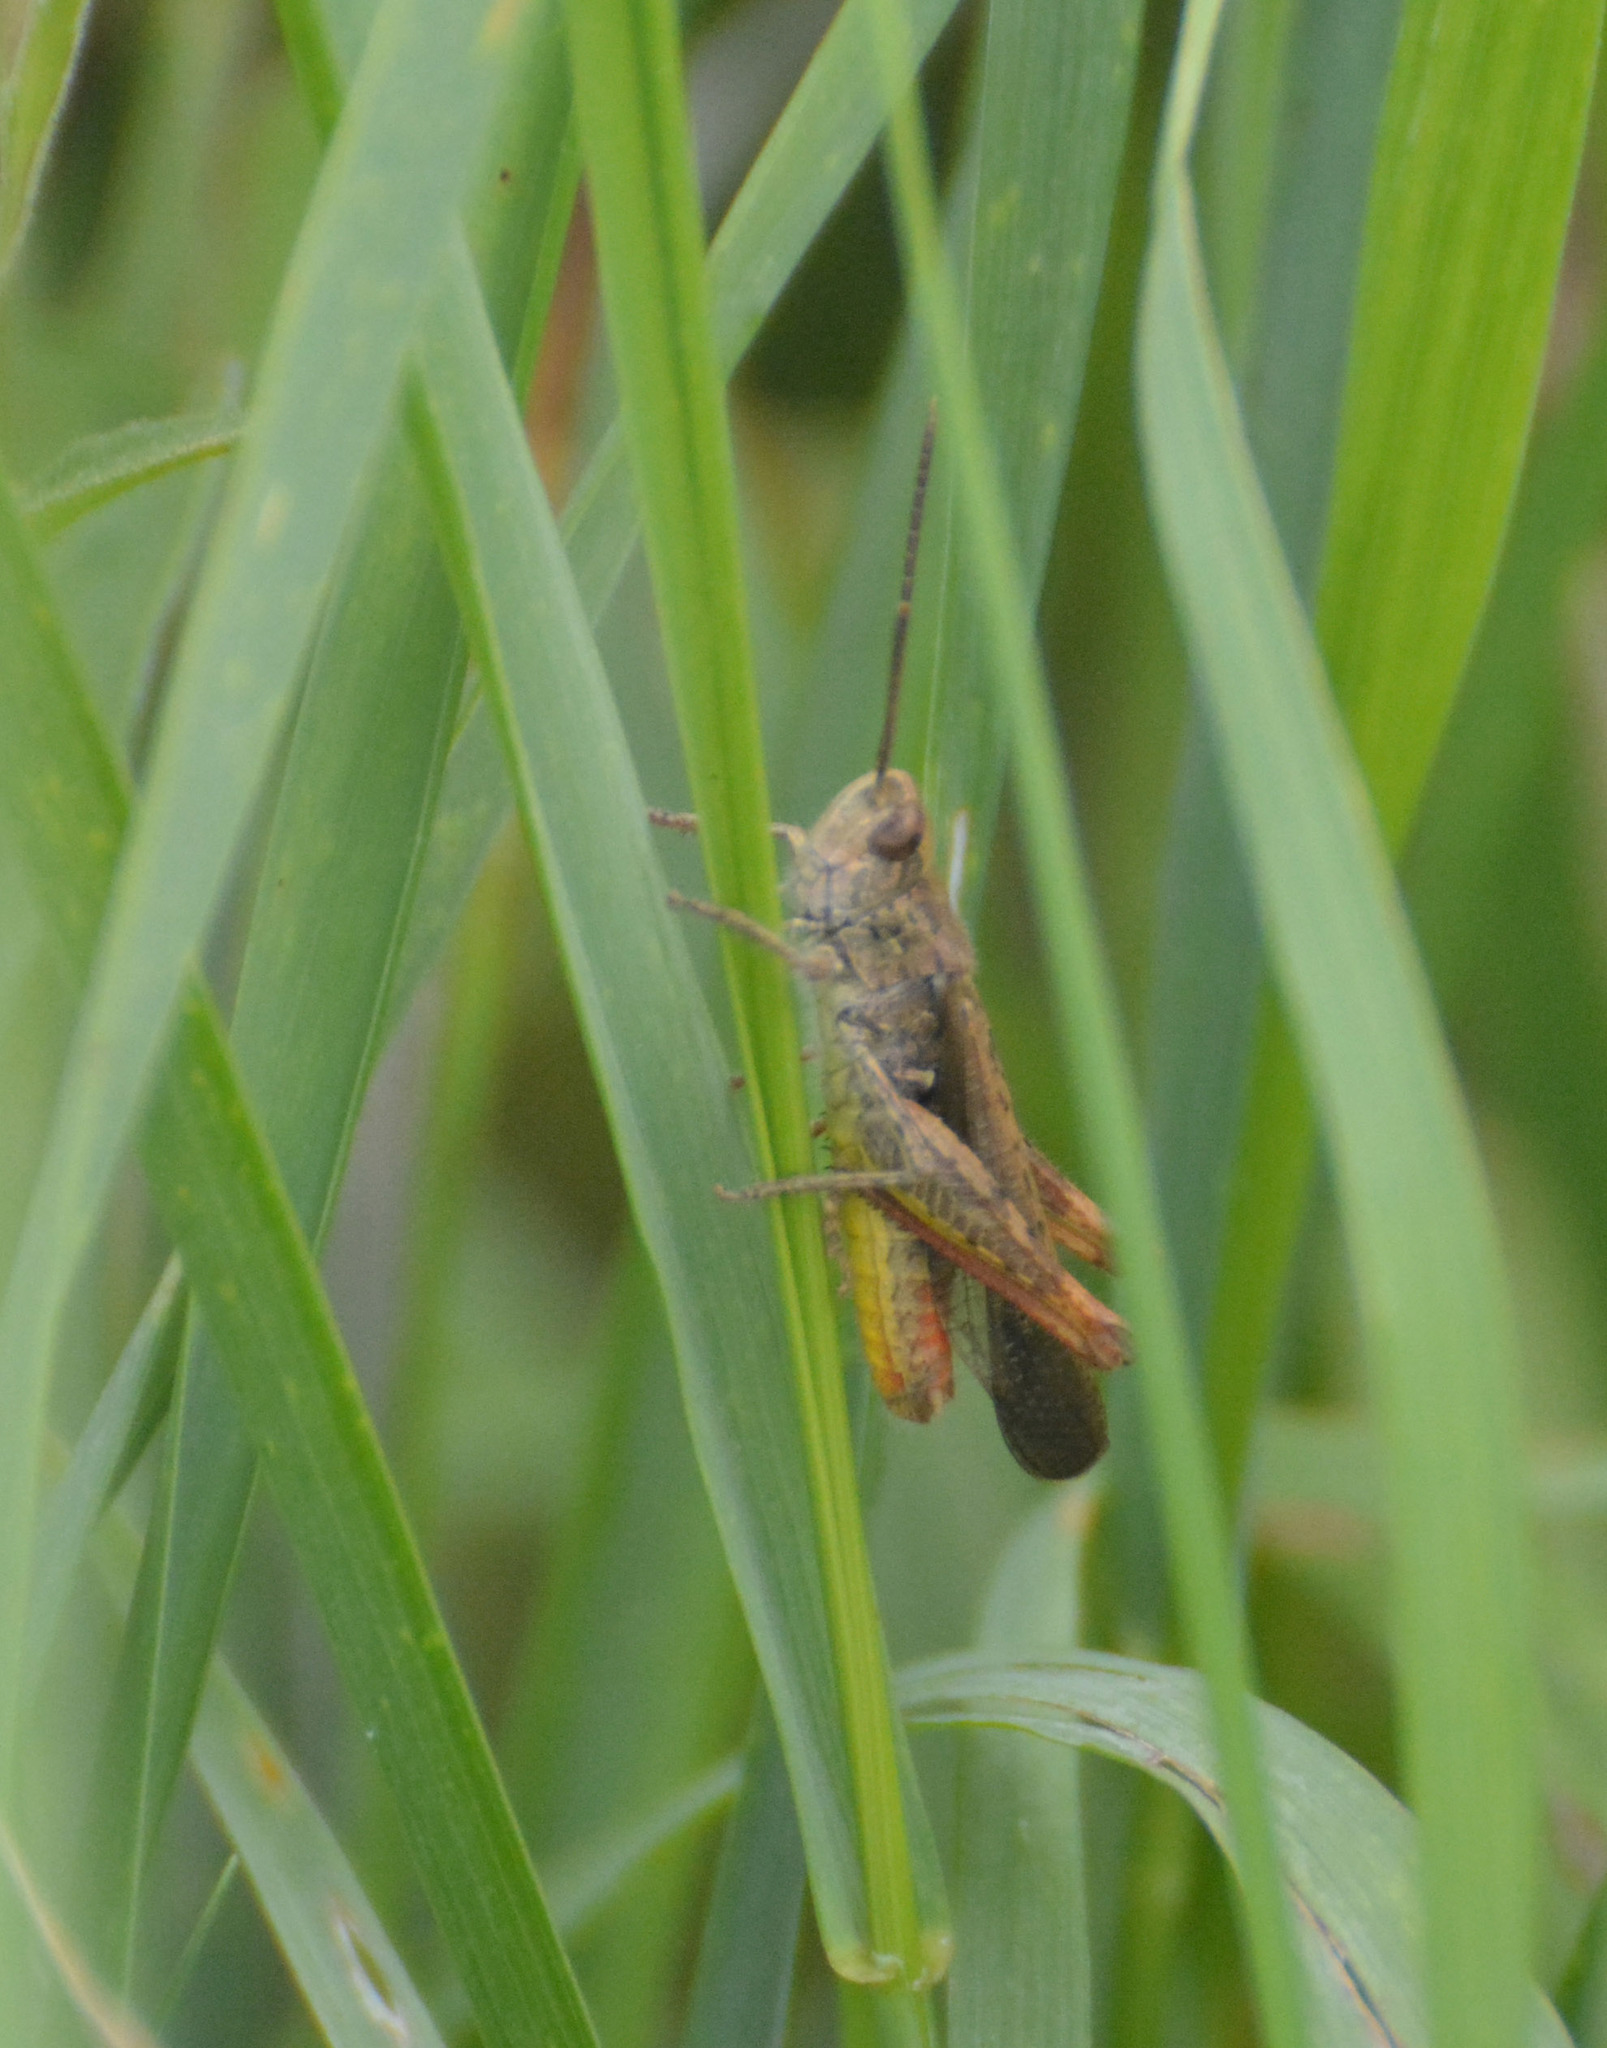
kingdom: Animalia
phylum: Arthropoda
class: Insecta
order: Orthoptera
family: Acrididae
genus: Chorthippus
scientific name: Chorthippus biguttulus
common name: Bow-winged grasshopper
